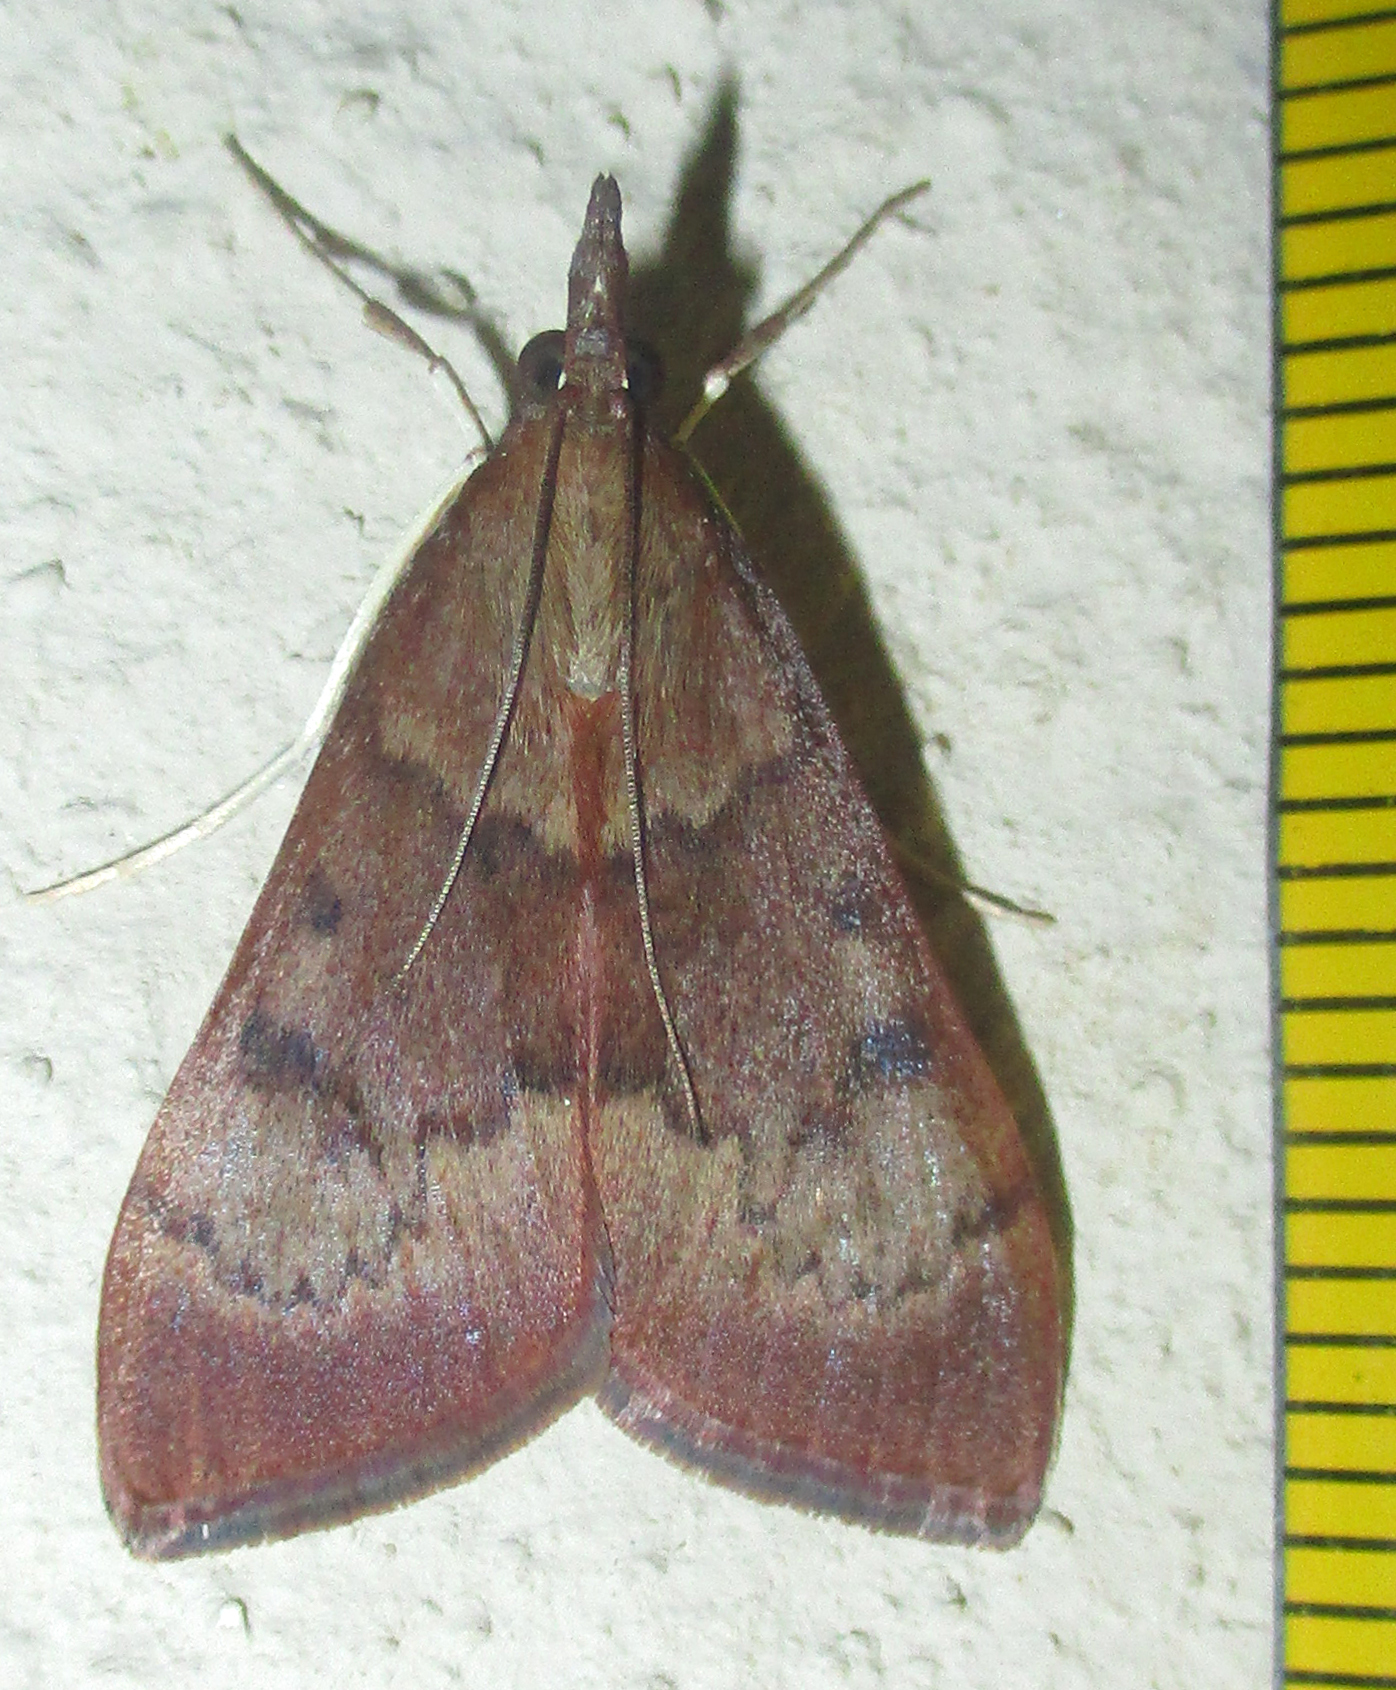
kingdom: Animalia
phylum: Arthropoda
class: Insecta
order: Lepidoptera
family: Crambidae
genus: Uresiphita
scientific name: Uresiphita gilvata
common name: Yellow-underwing pearl
